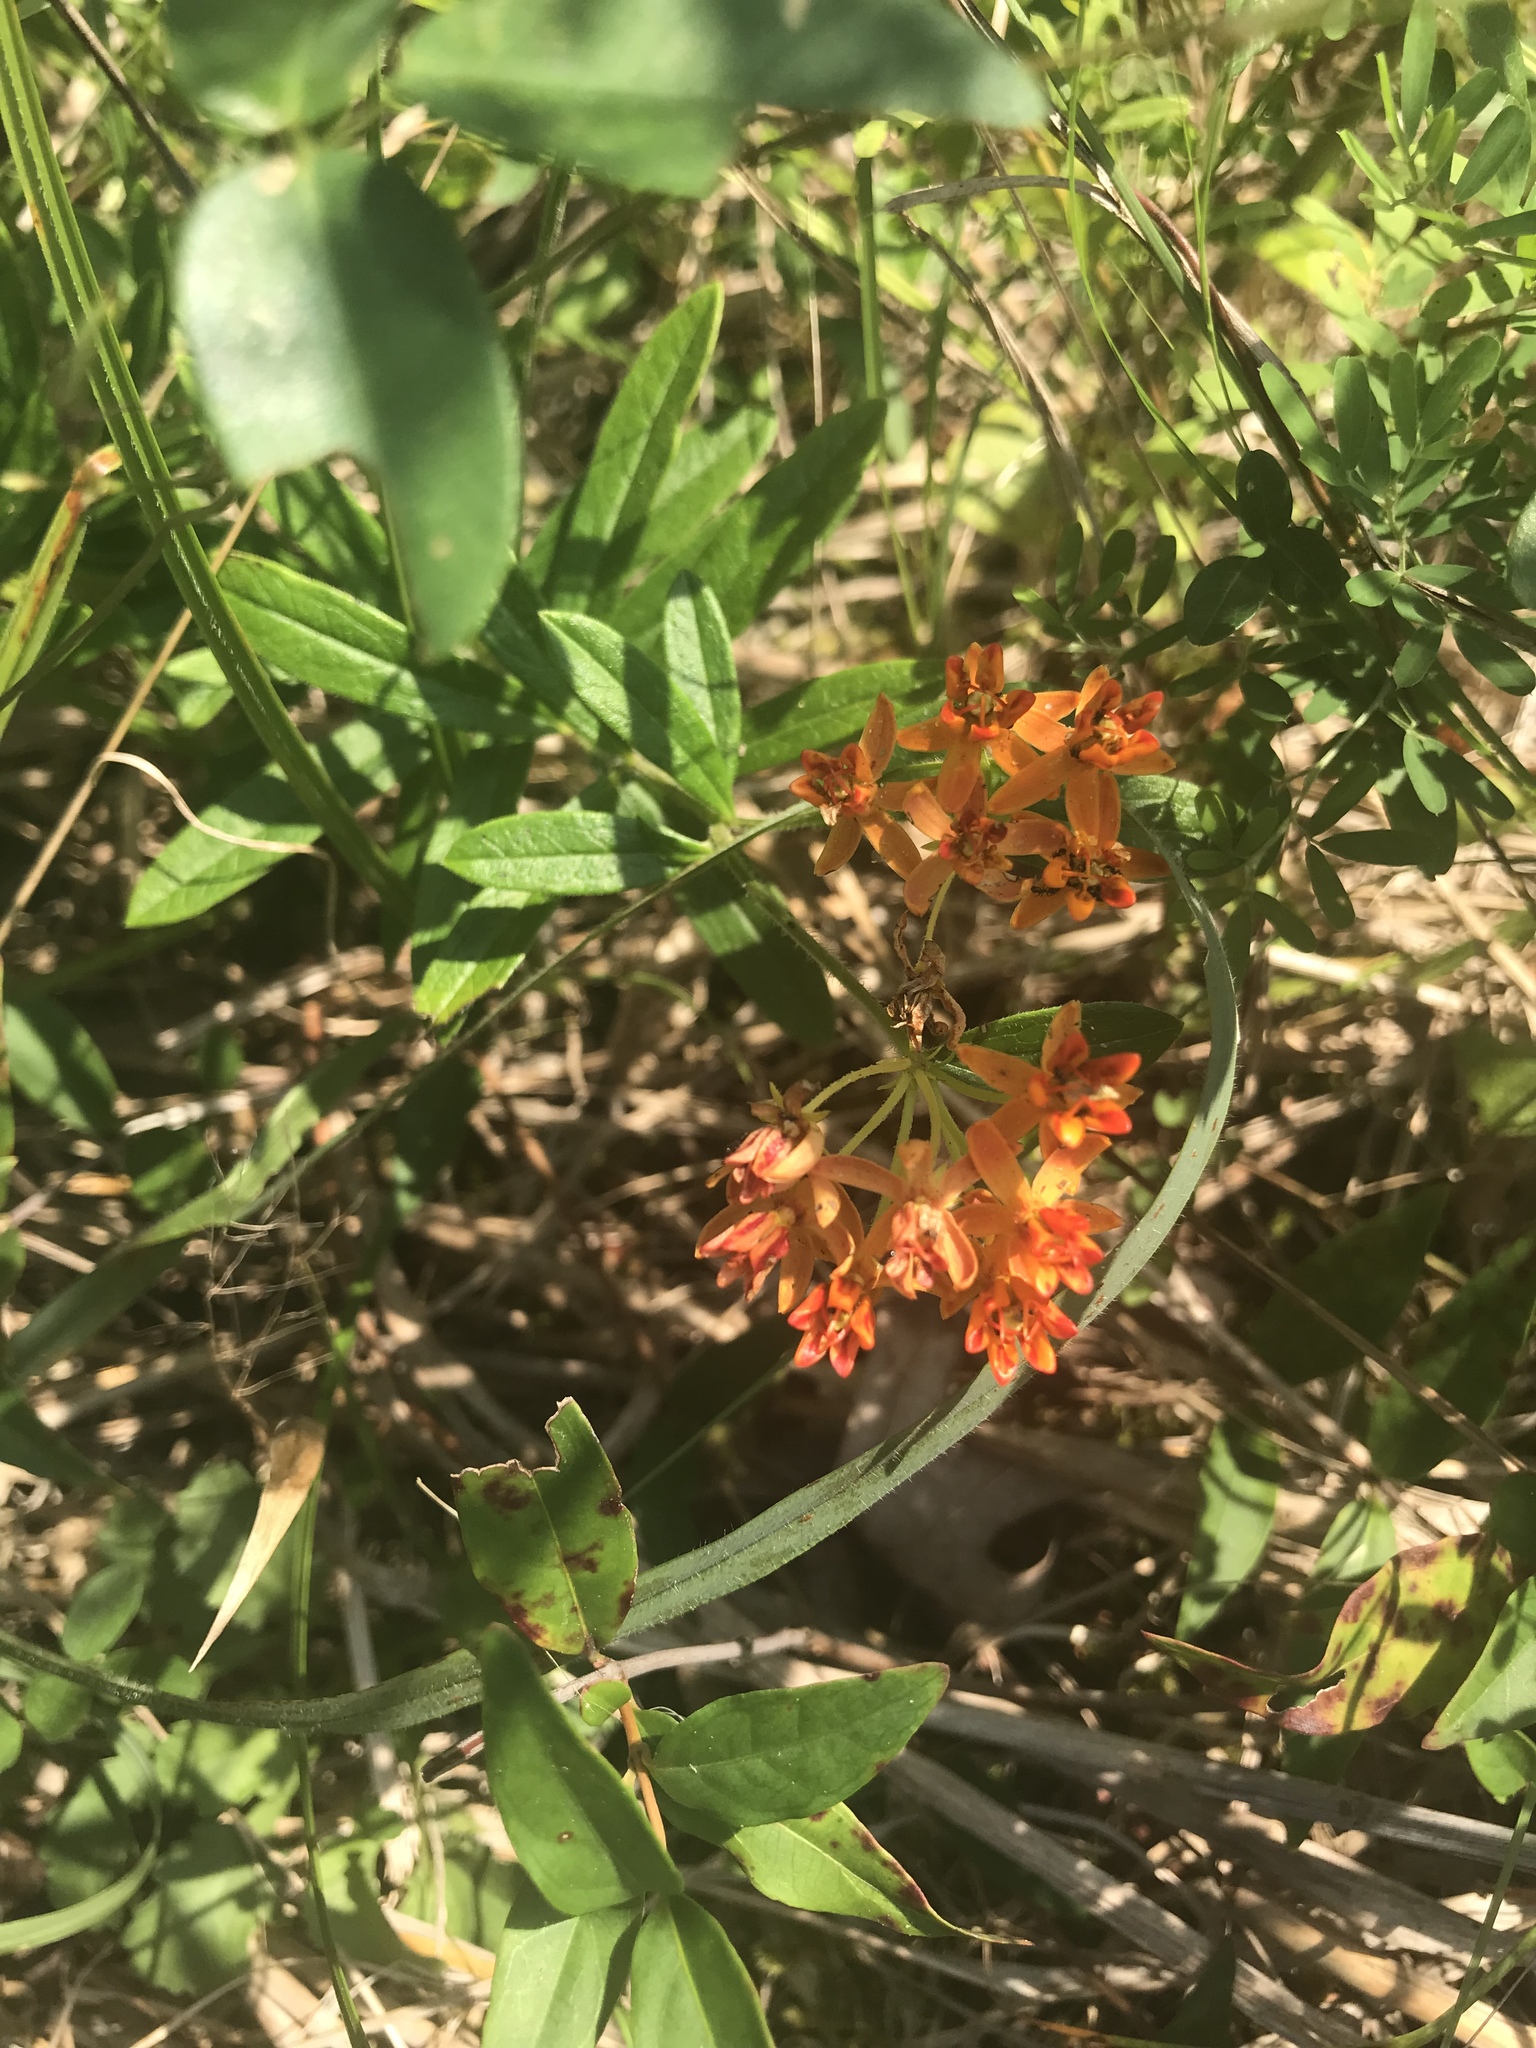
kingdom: Plantae
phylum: Tracheophyta
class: Magnoliopsida
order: Gentianales
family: Apocynaceae
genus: Asclepias
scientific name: Asclepias tuberosa
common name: Butterfly milkweed
